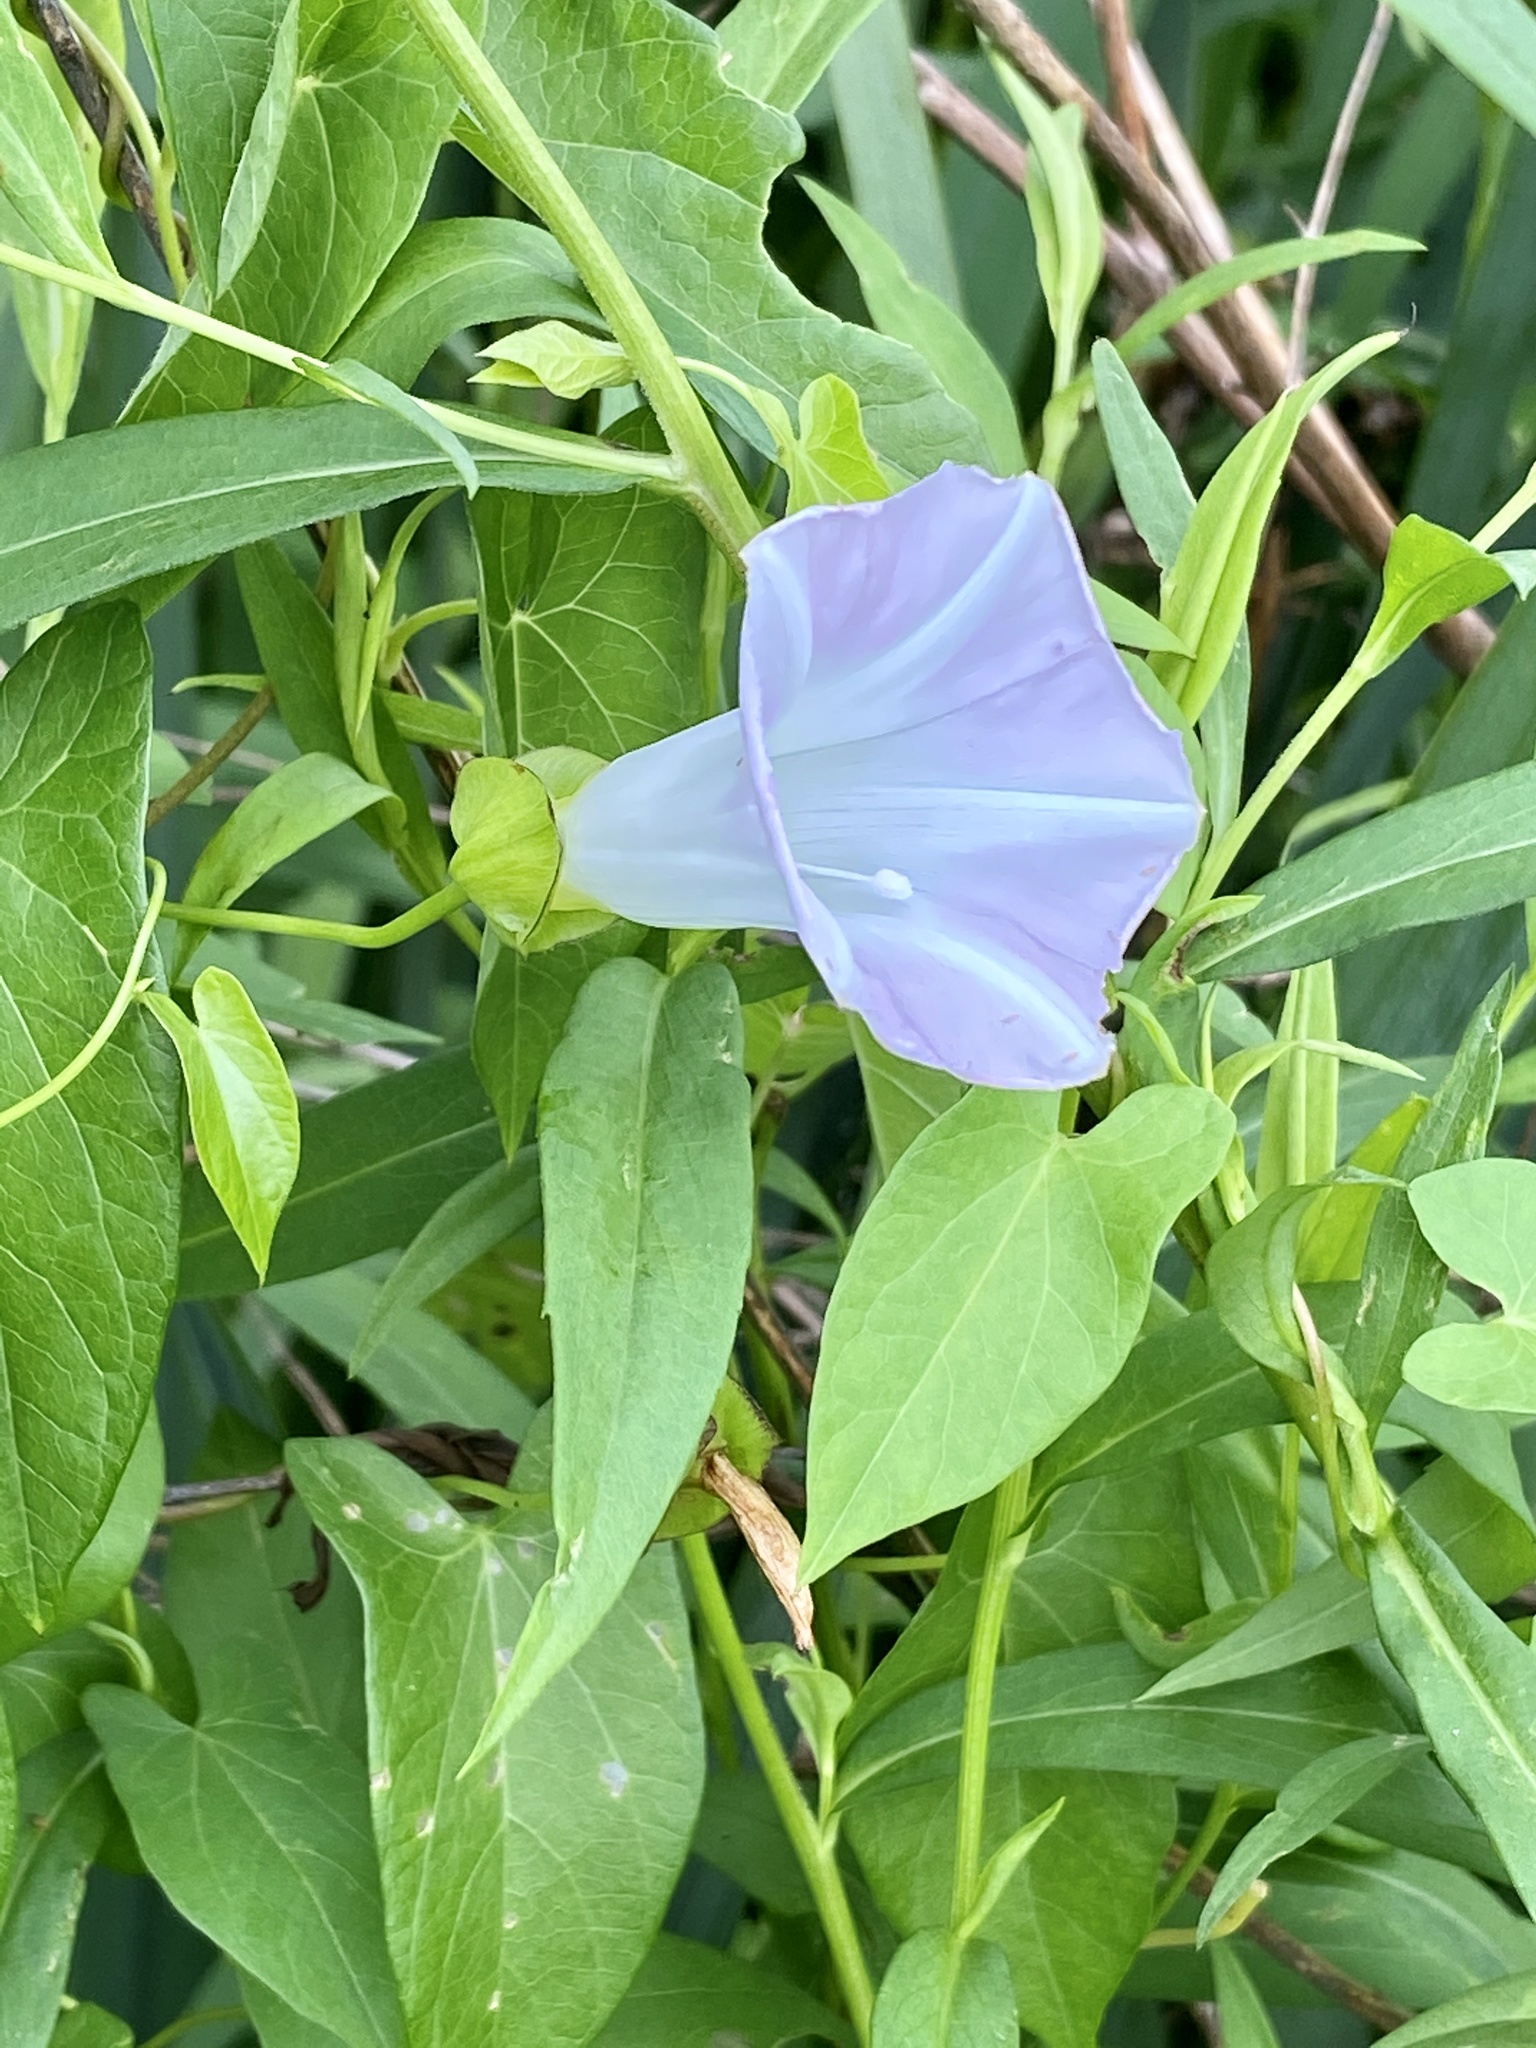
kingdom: Plantae
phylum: Tracheophyta
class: Magnoliopsida
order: Solanales
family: Convolvulaceae
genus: Calystegia
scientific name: Calystegia sepium
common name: Hedge bindweed
